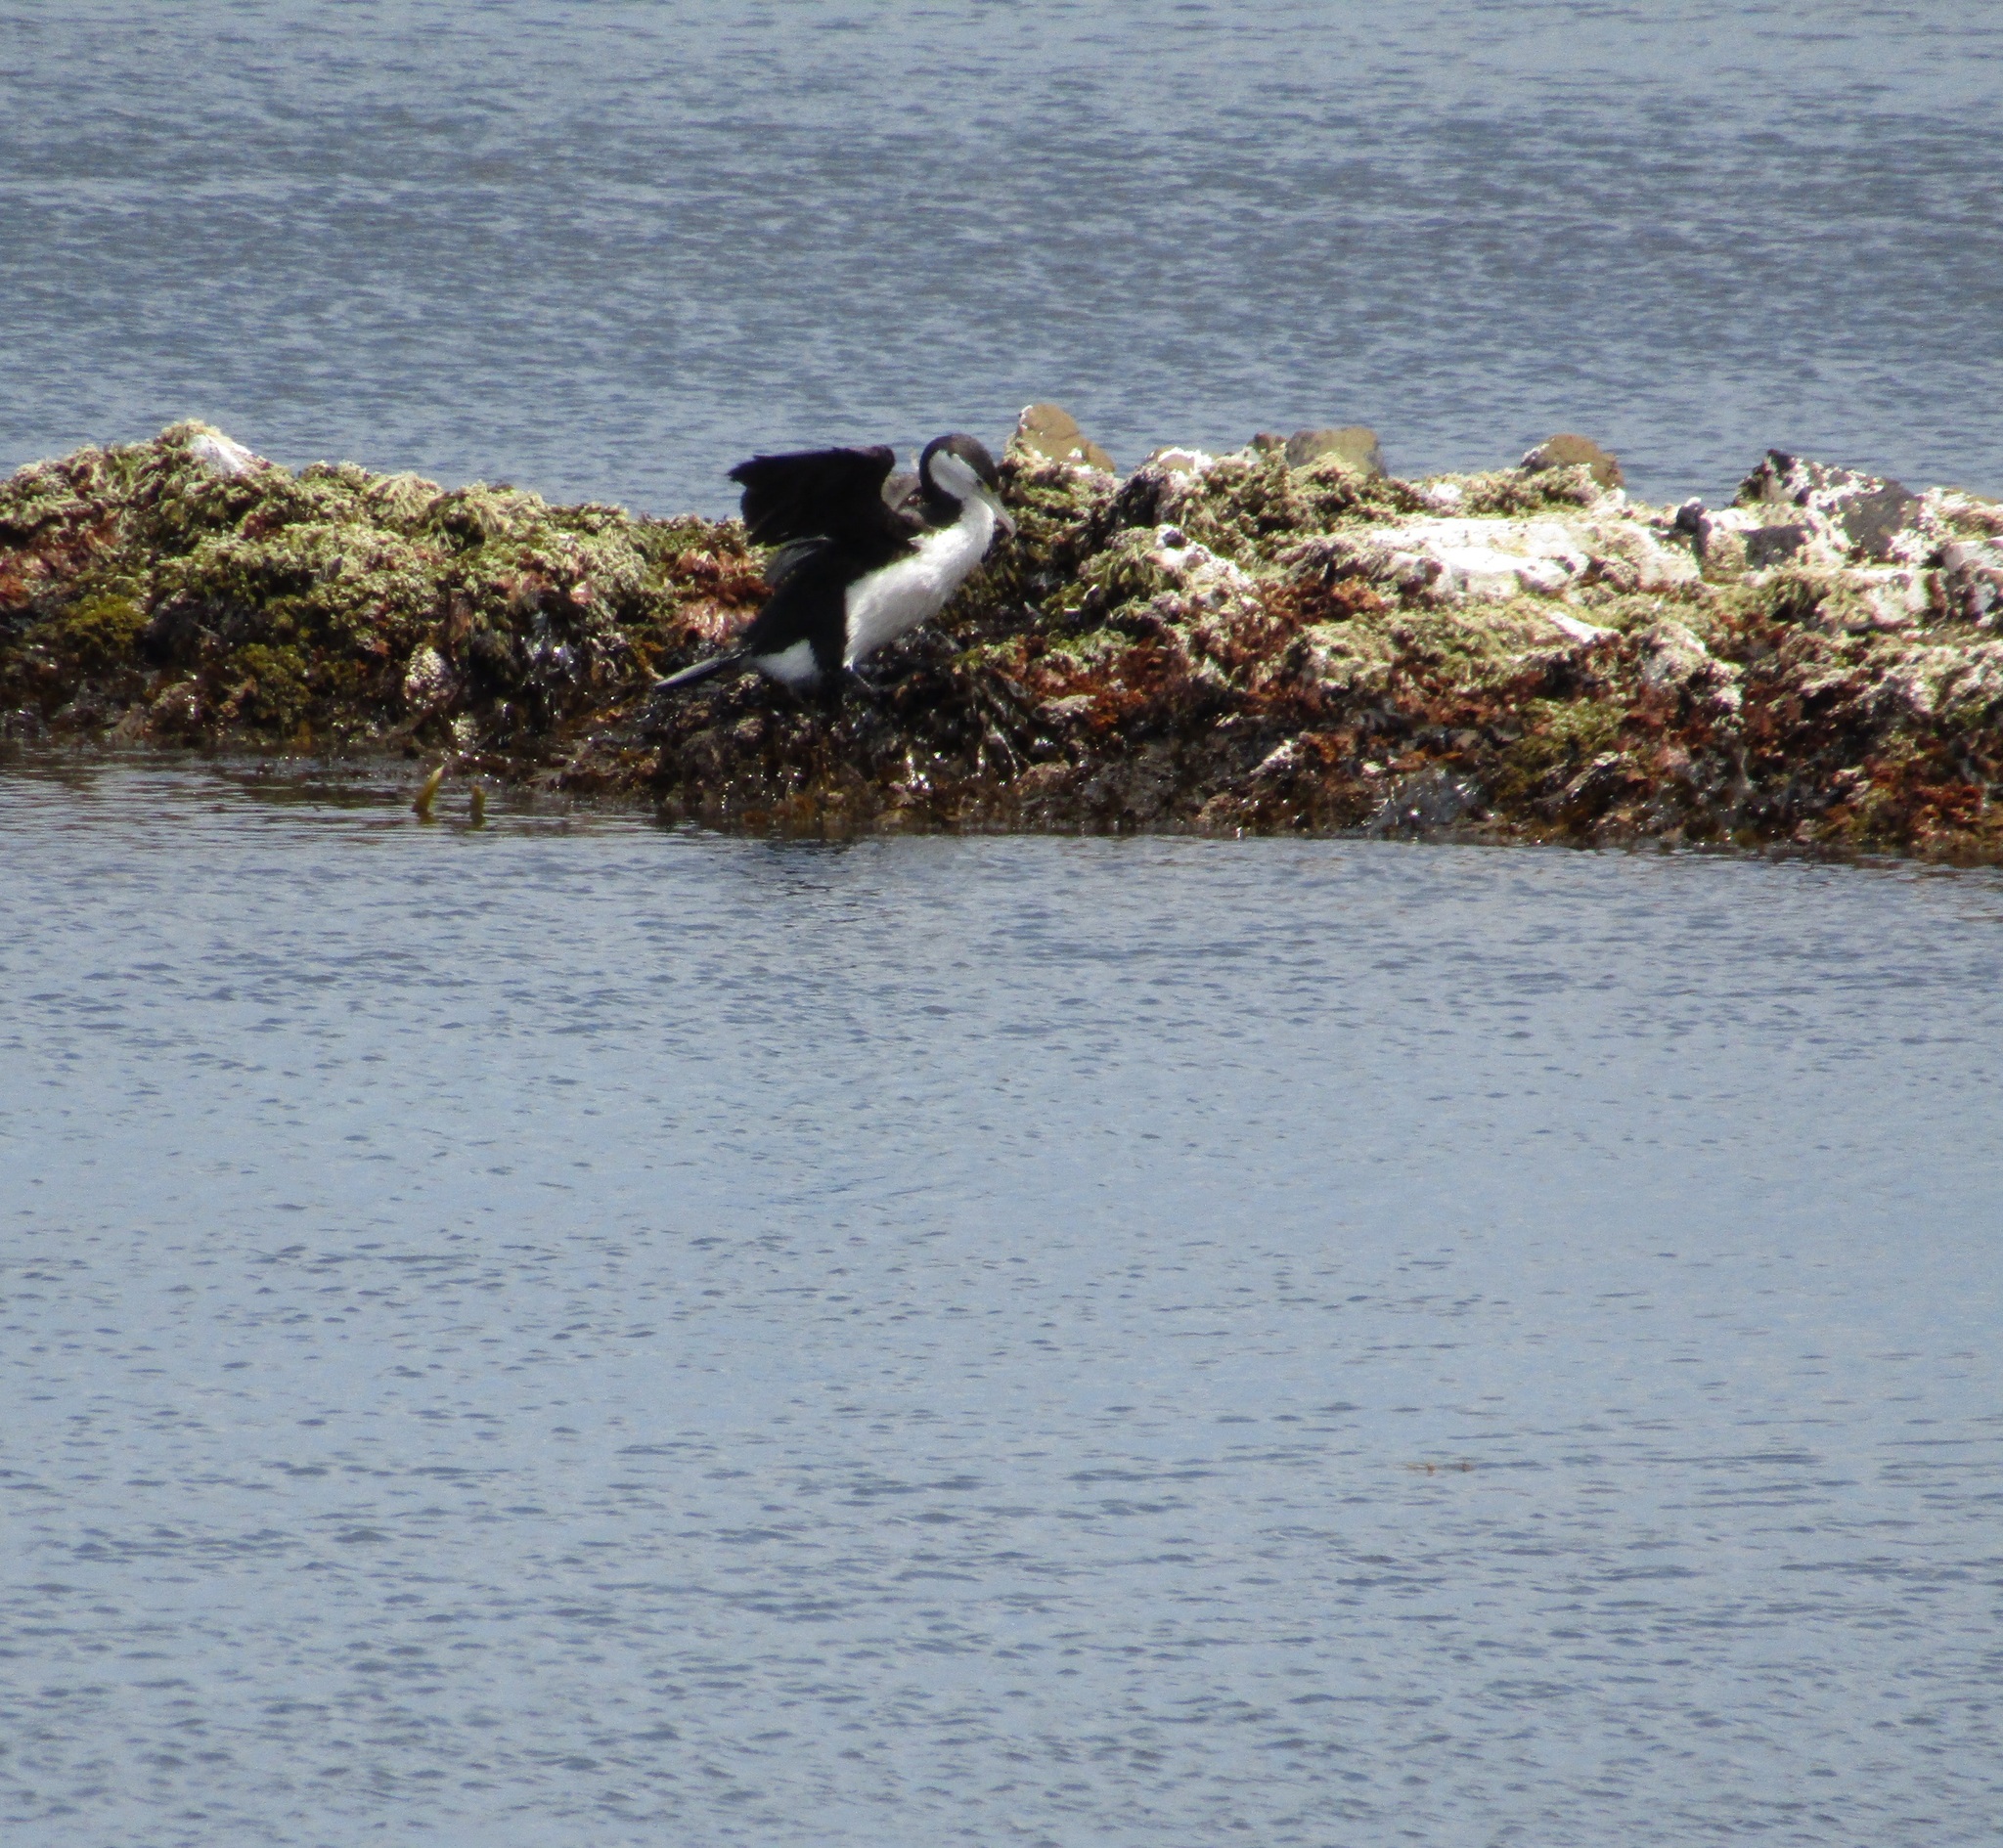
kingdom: Animalia
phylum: Chordata
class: Aves
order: Suliformes
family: Phalacrocoracidae
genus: Phalacrocorax
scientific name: Phalacrocorax varius
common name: Pied cormorant
